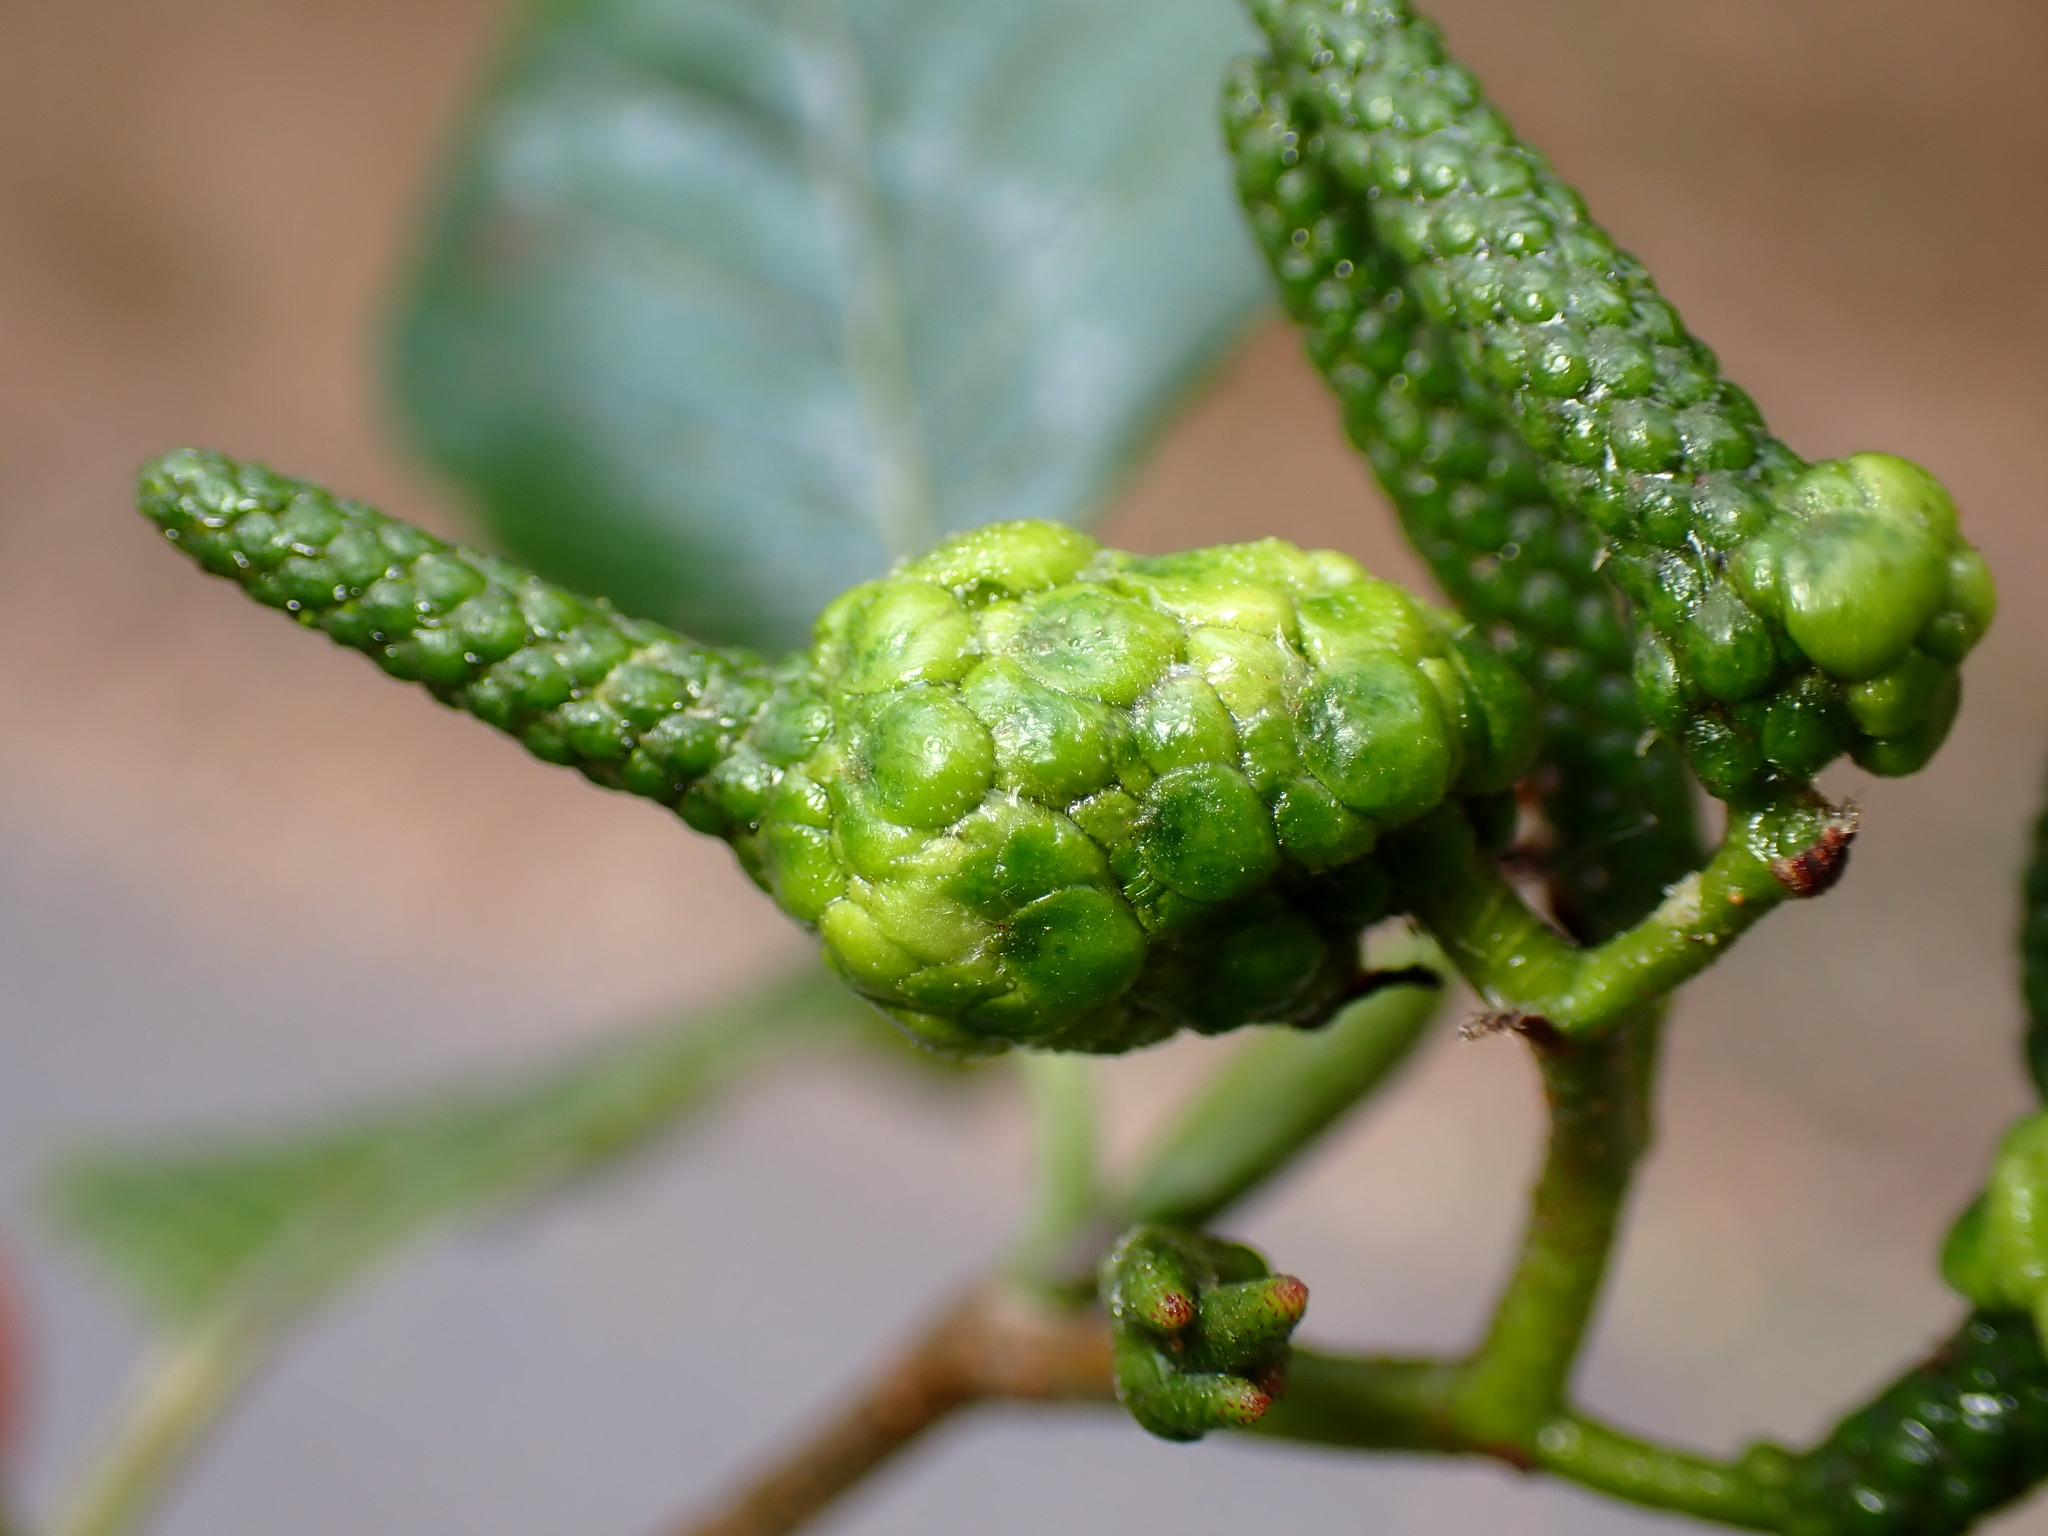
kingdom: Animalia
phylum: Arthropoda
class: Insecta
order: Diptera
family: Cecidomyiidae
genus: Dasineura
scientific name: Dasineura
